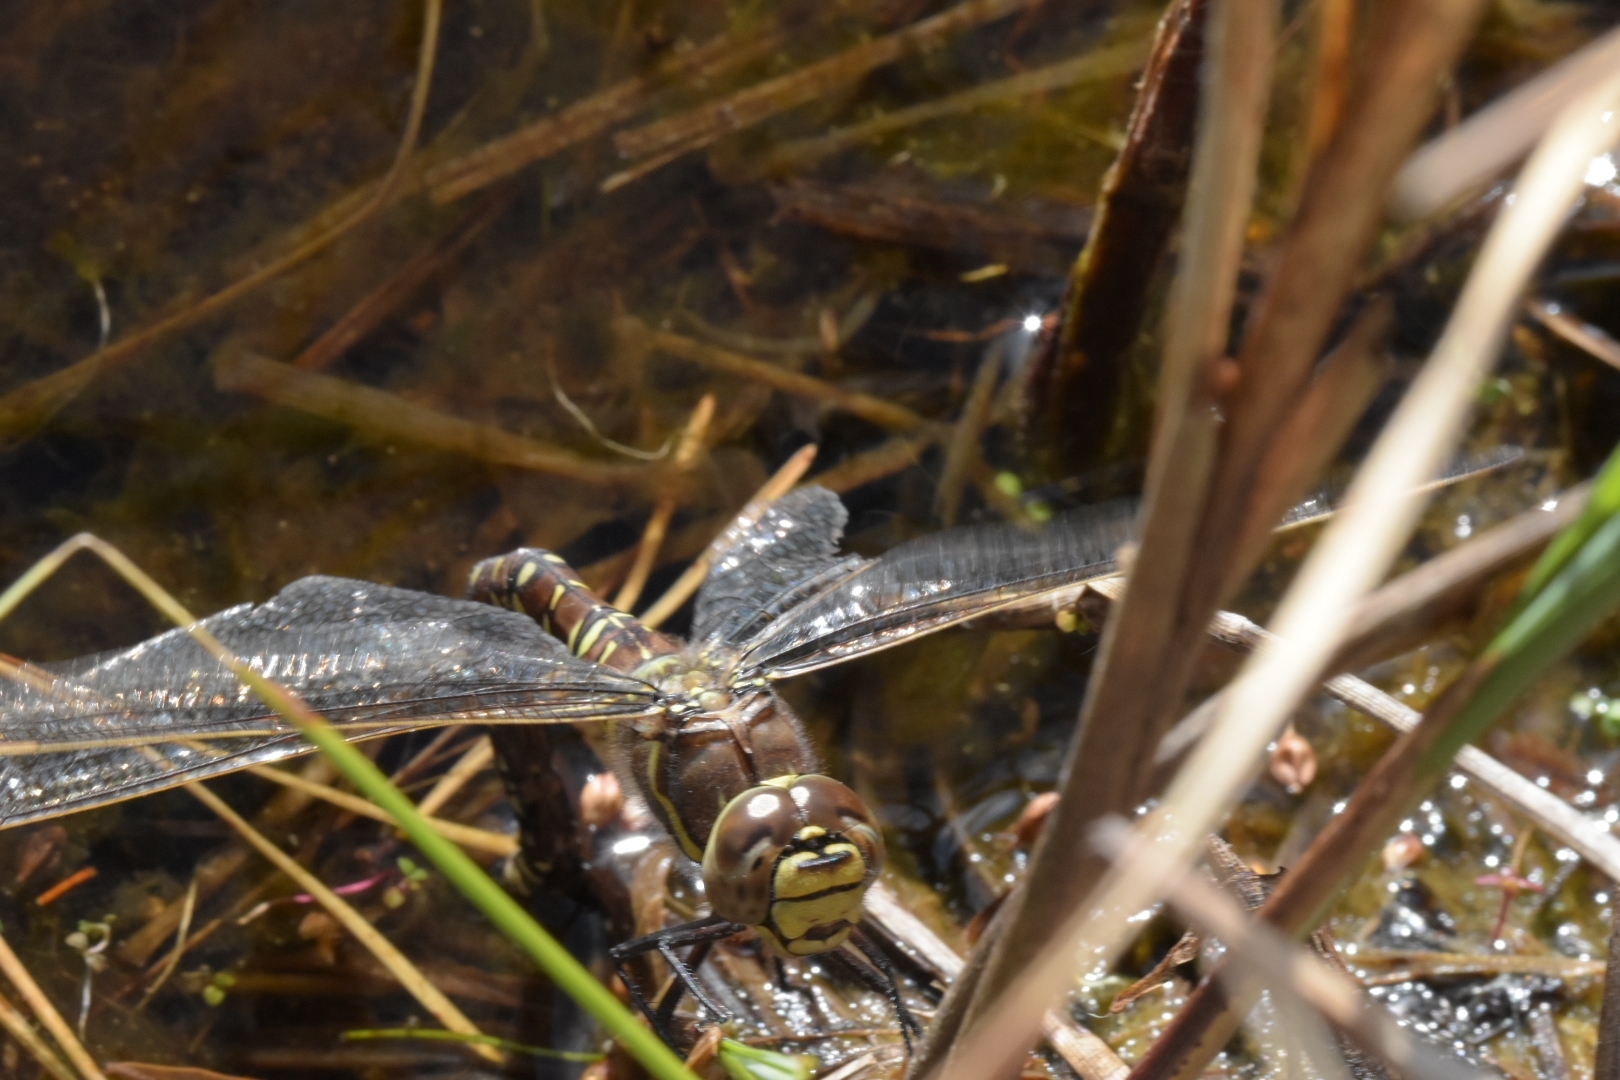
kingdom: Animalia
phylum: Arthropoda
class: Insecta
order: Odonata
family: Aeshnidae
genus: Aeshna
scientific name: Aeshna juncea
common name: Moorland hawker
